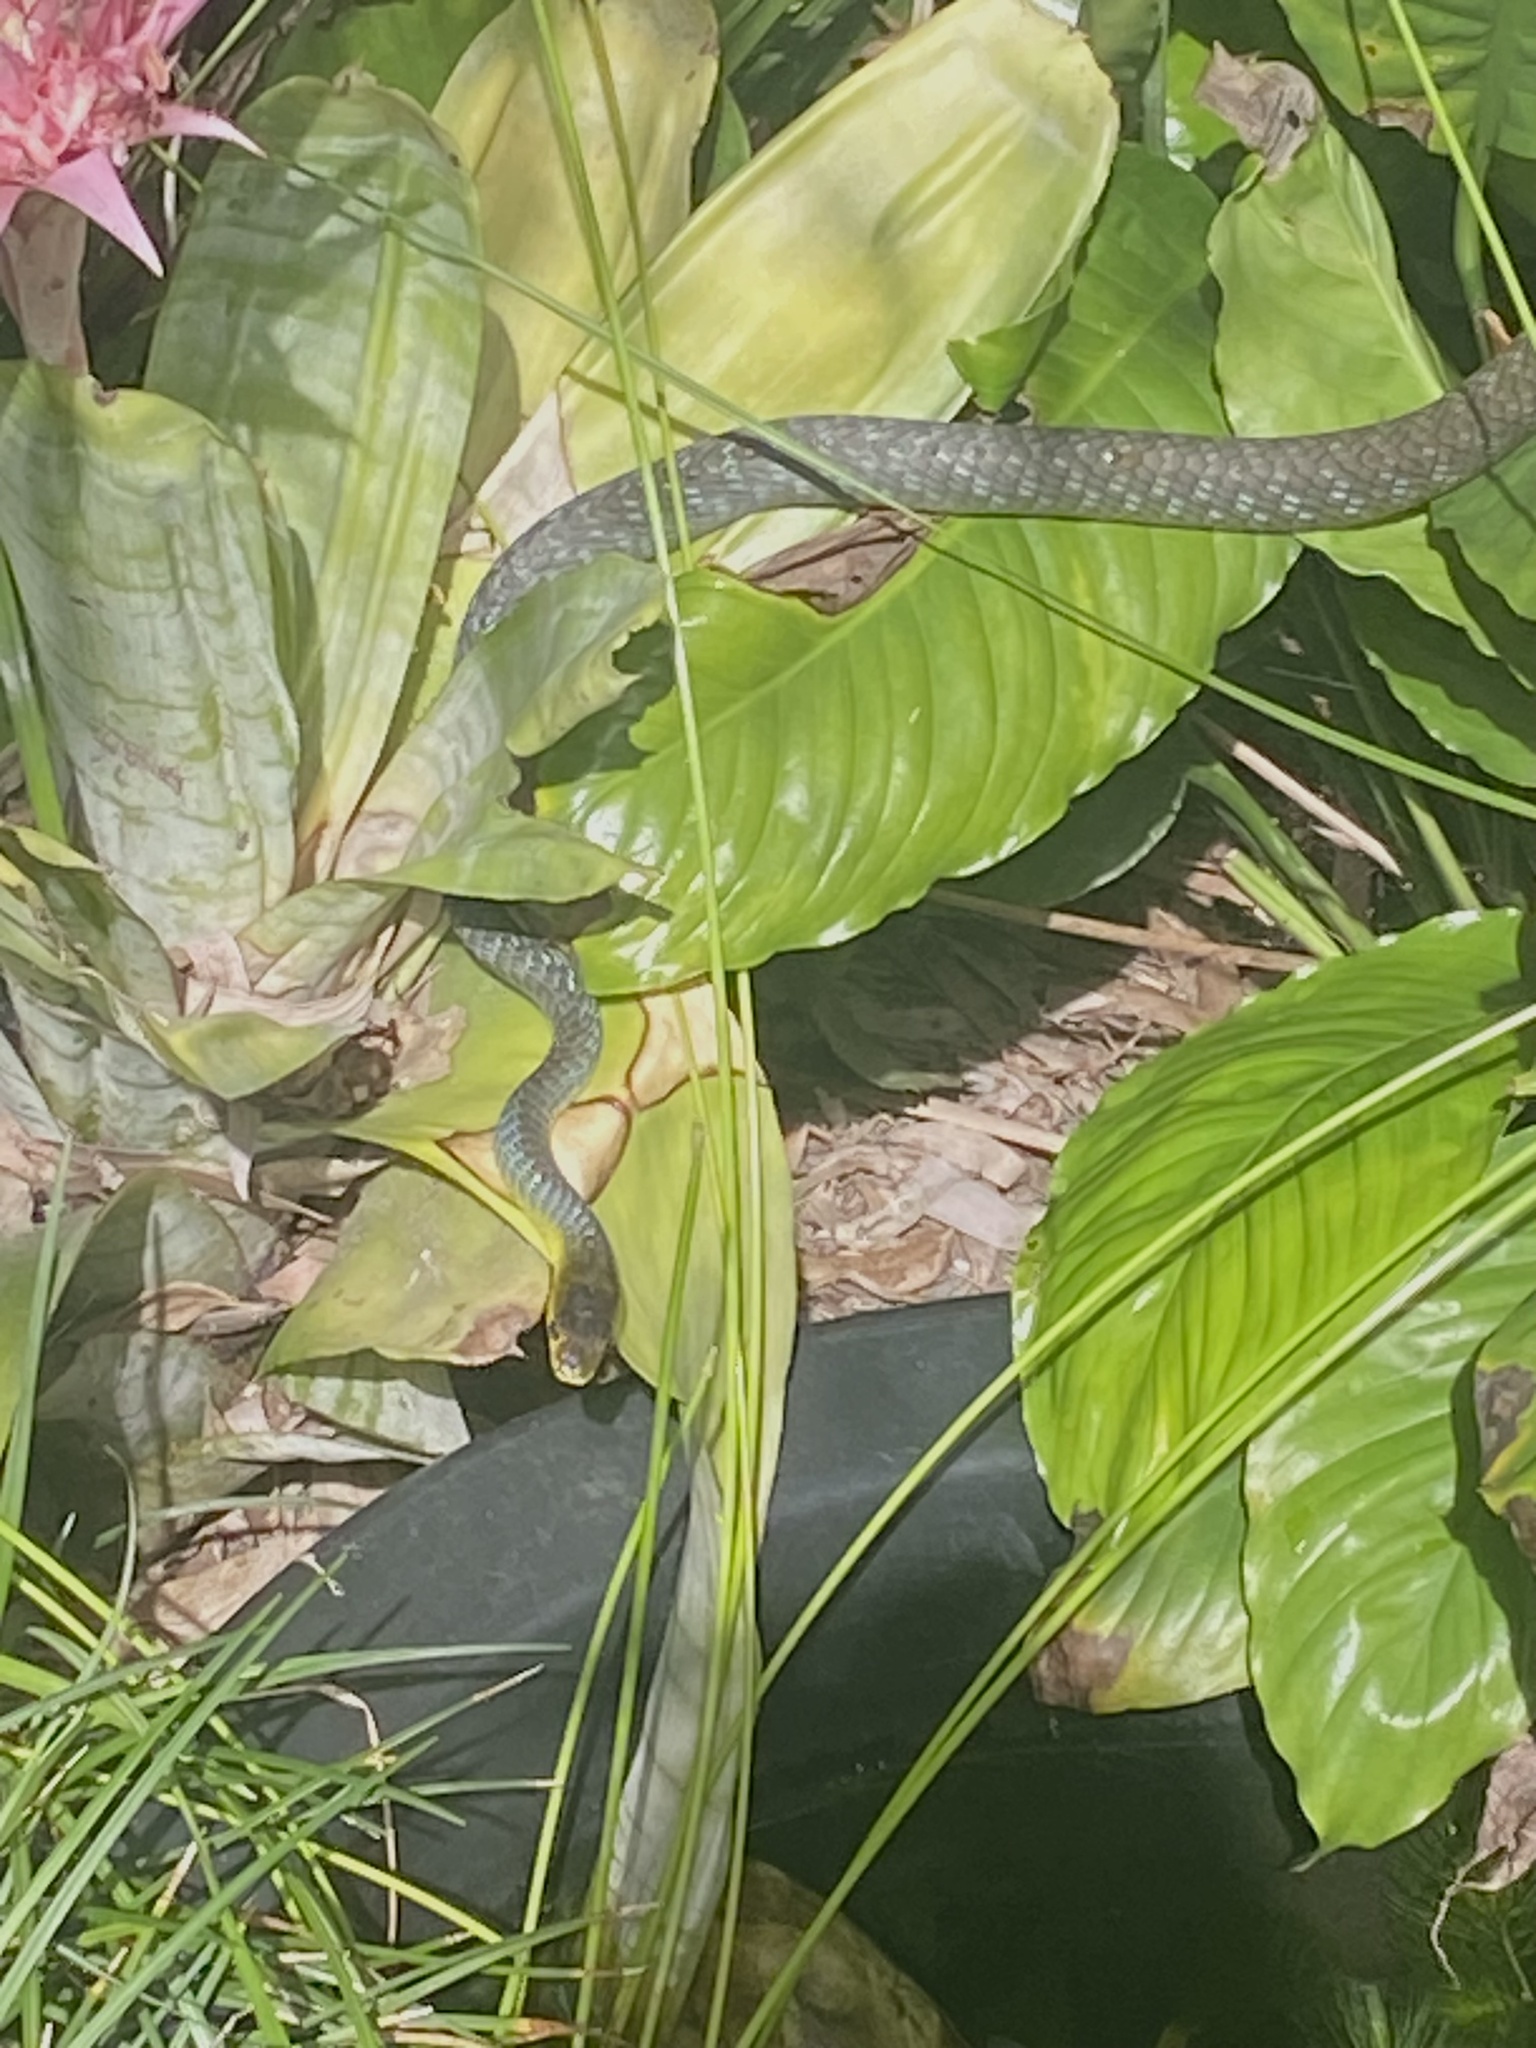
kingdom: Animalia
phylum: Chordata
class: Squamata
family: Colubridae
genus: Dendrelaphis
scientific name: Dendrelaphis punctulatus
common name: Common tree snake
